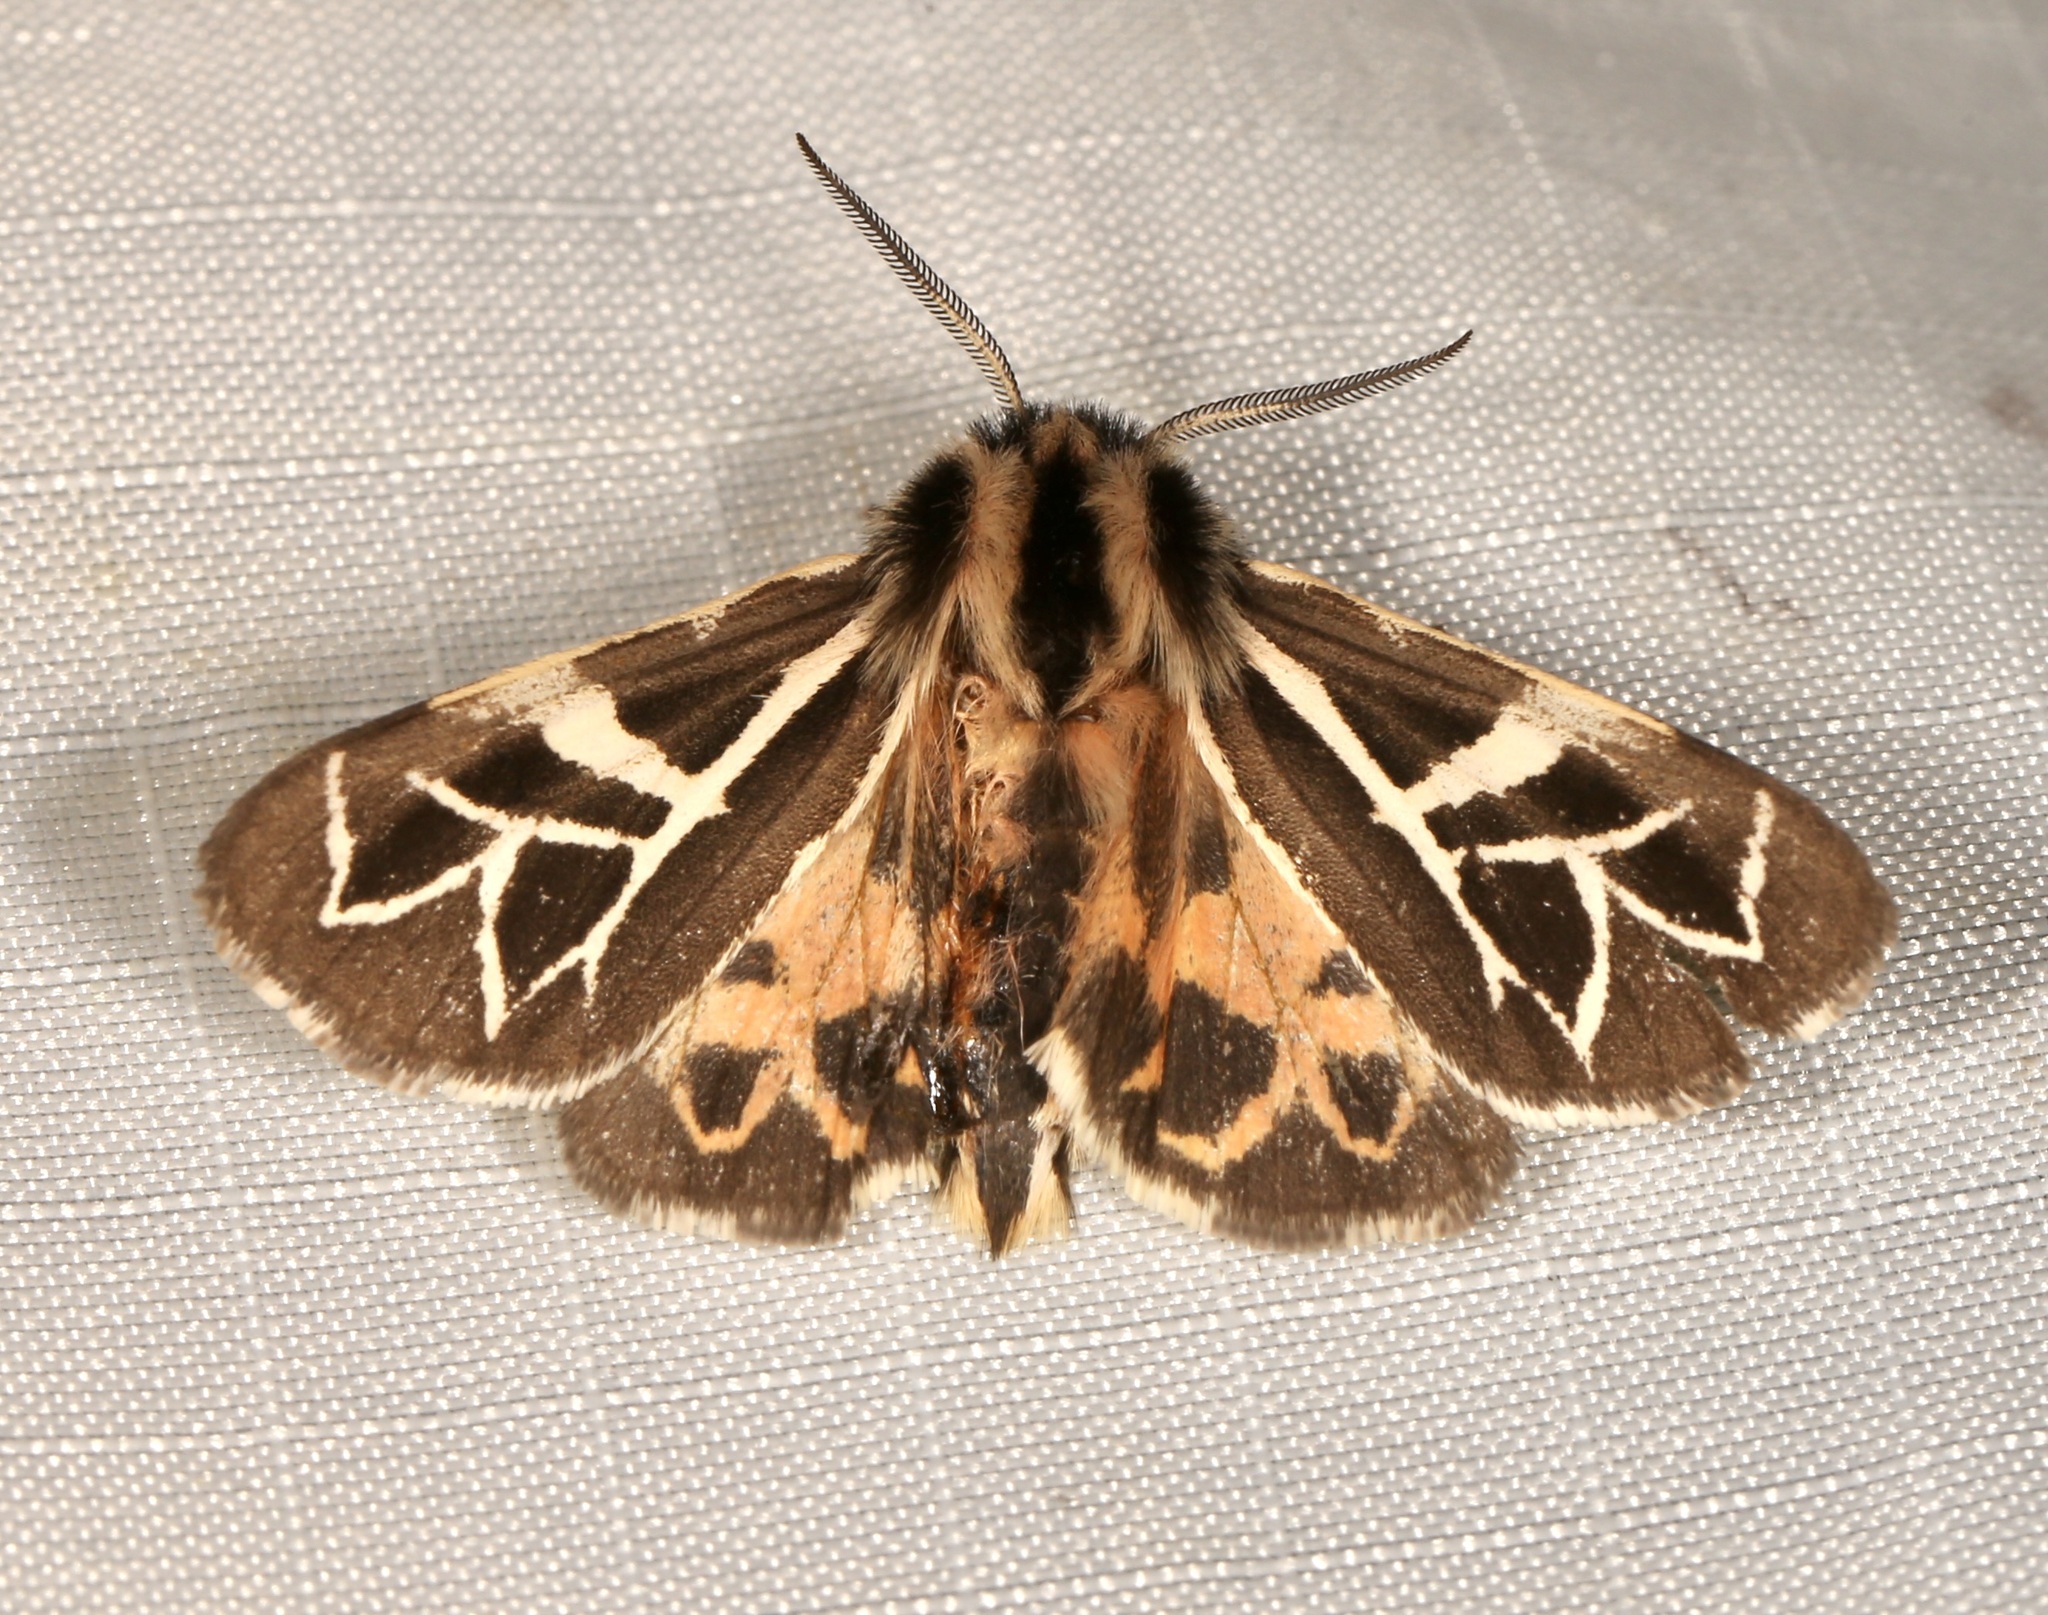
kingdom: Animalia
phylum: Arthropoda
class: Insecta
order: Lepidoptera
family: Erebidae
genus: Apantesis
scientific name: Apantesis
